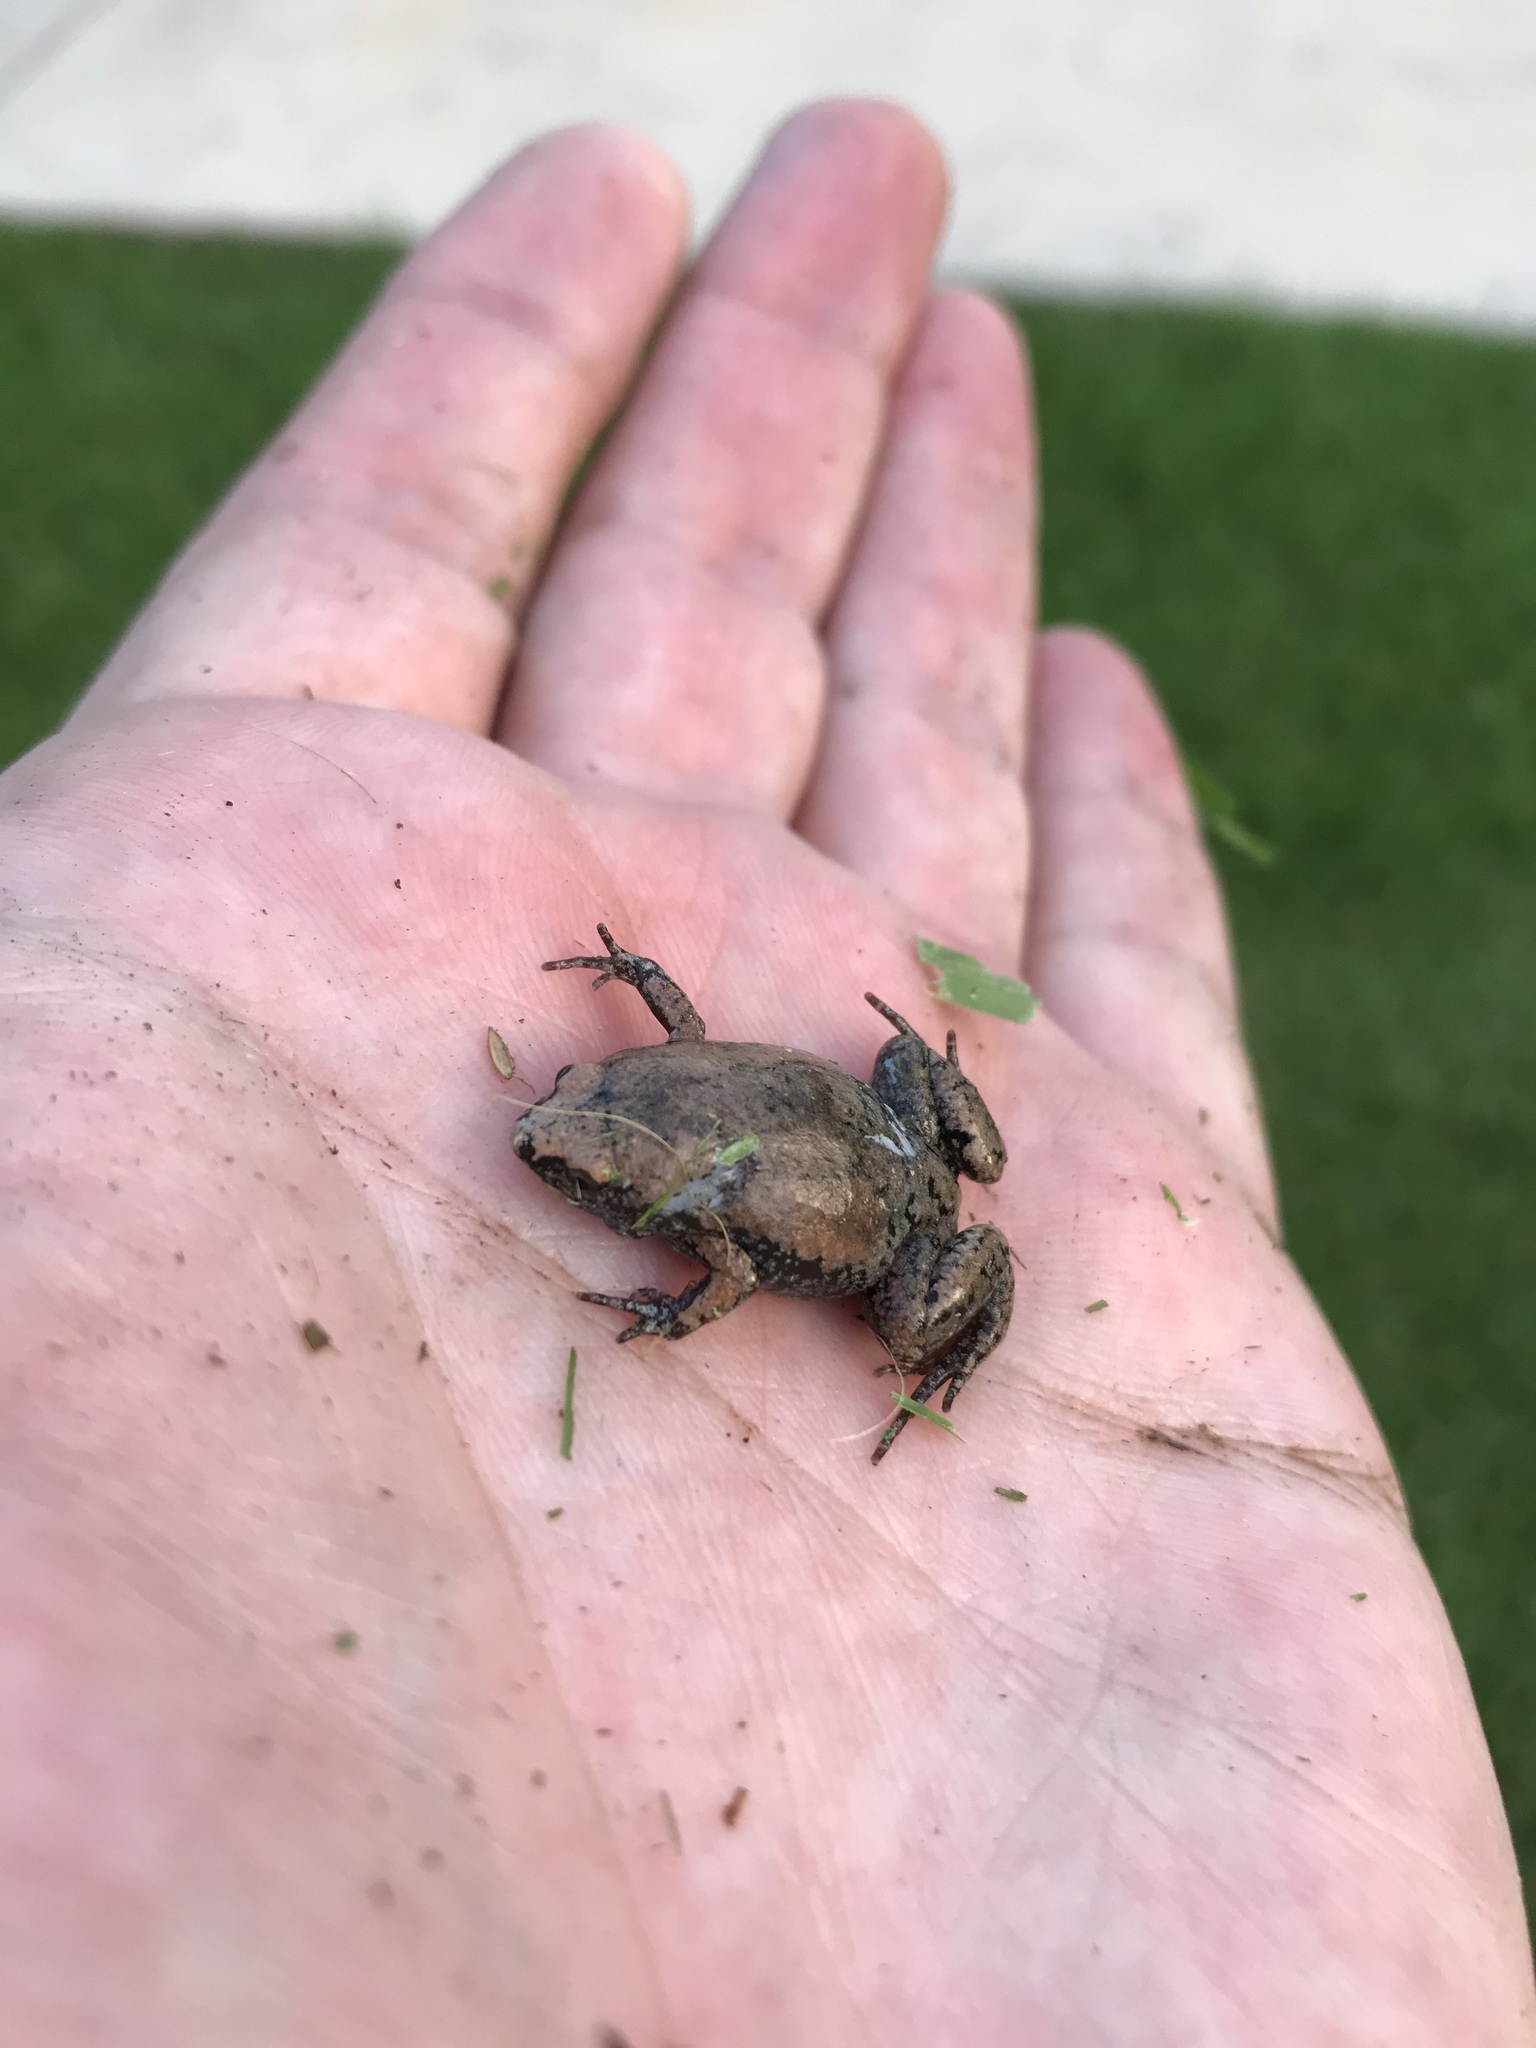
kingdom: Animalia
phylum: Chordata
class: Amphibia
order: Anura
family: Microhylidae
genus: Gastrophryne
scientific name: Gastrophryne carolinensis
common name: Eastern narrowmouth toad
